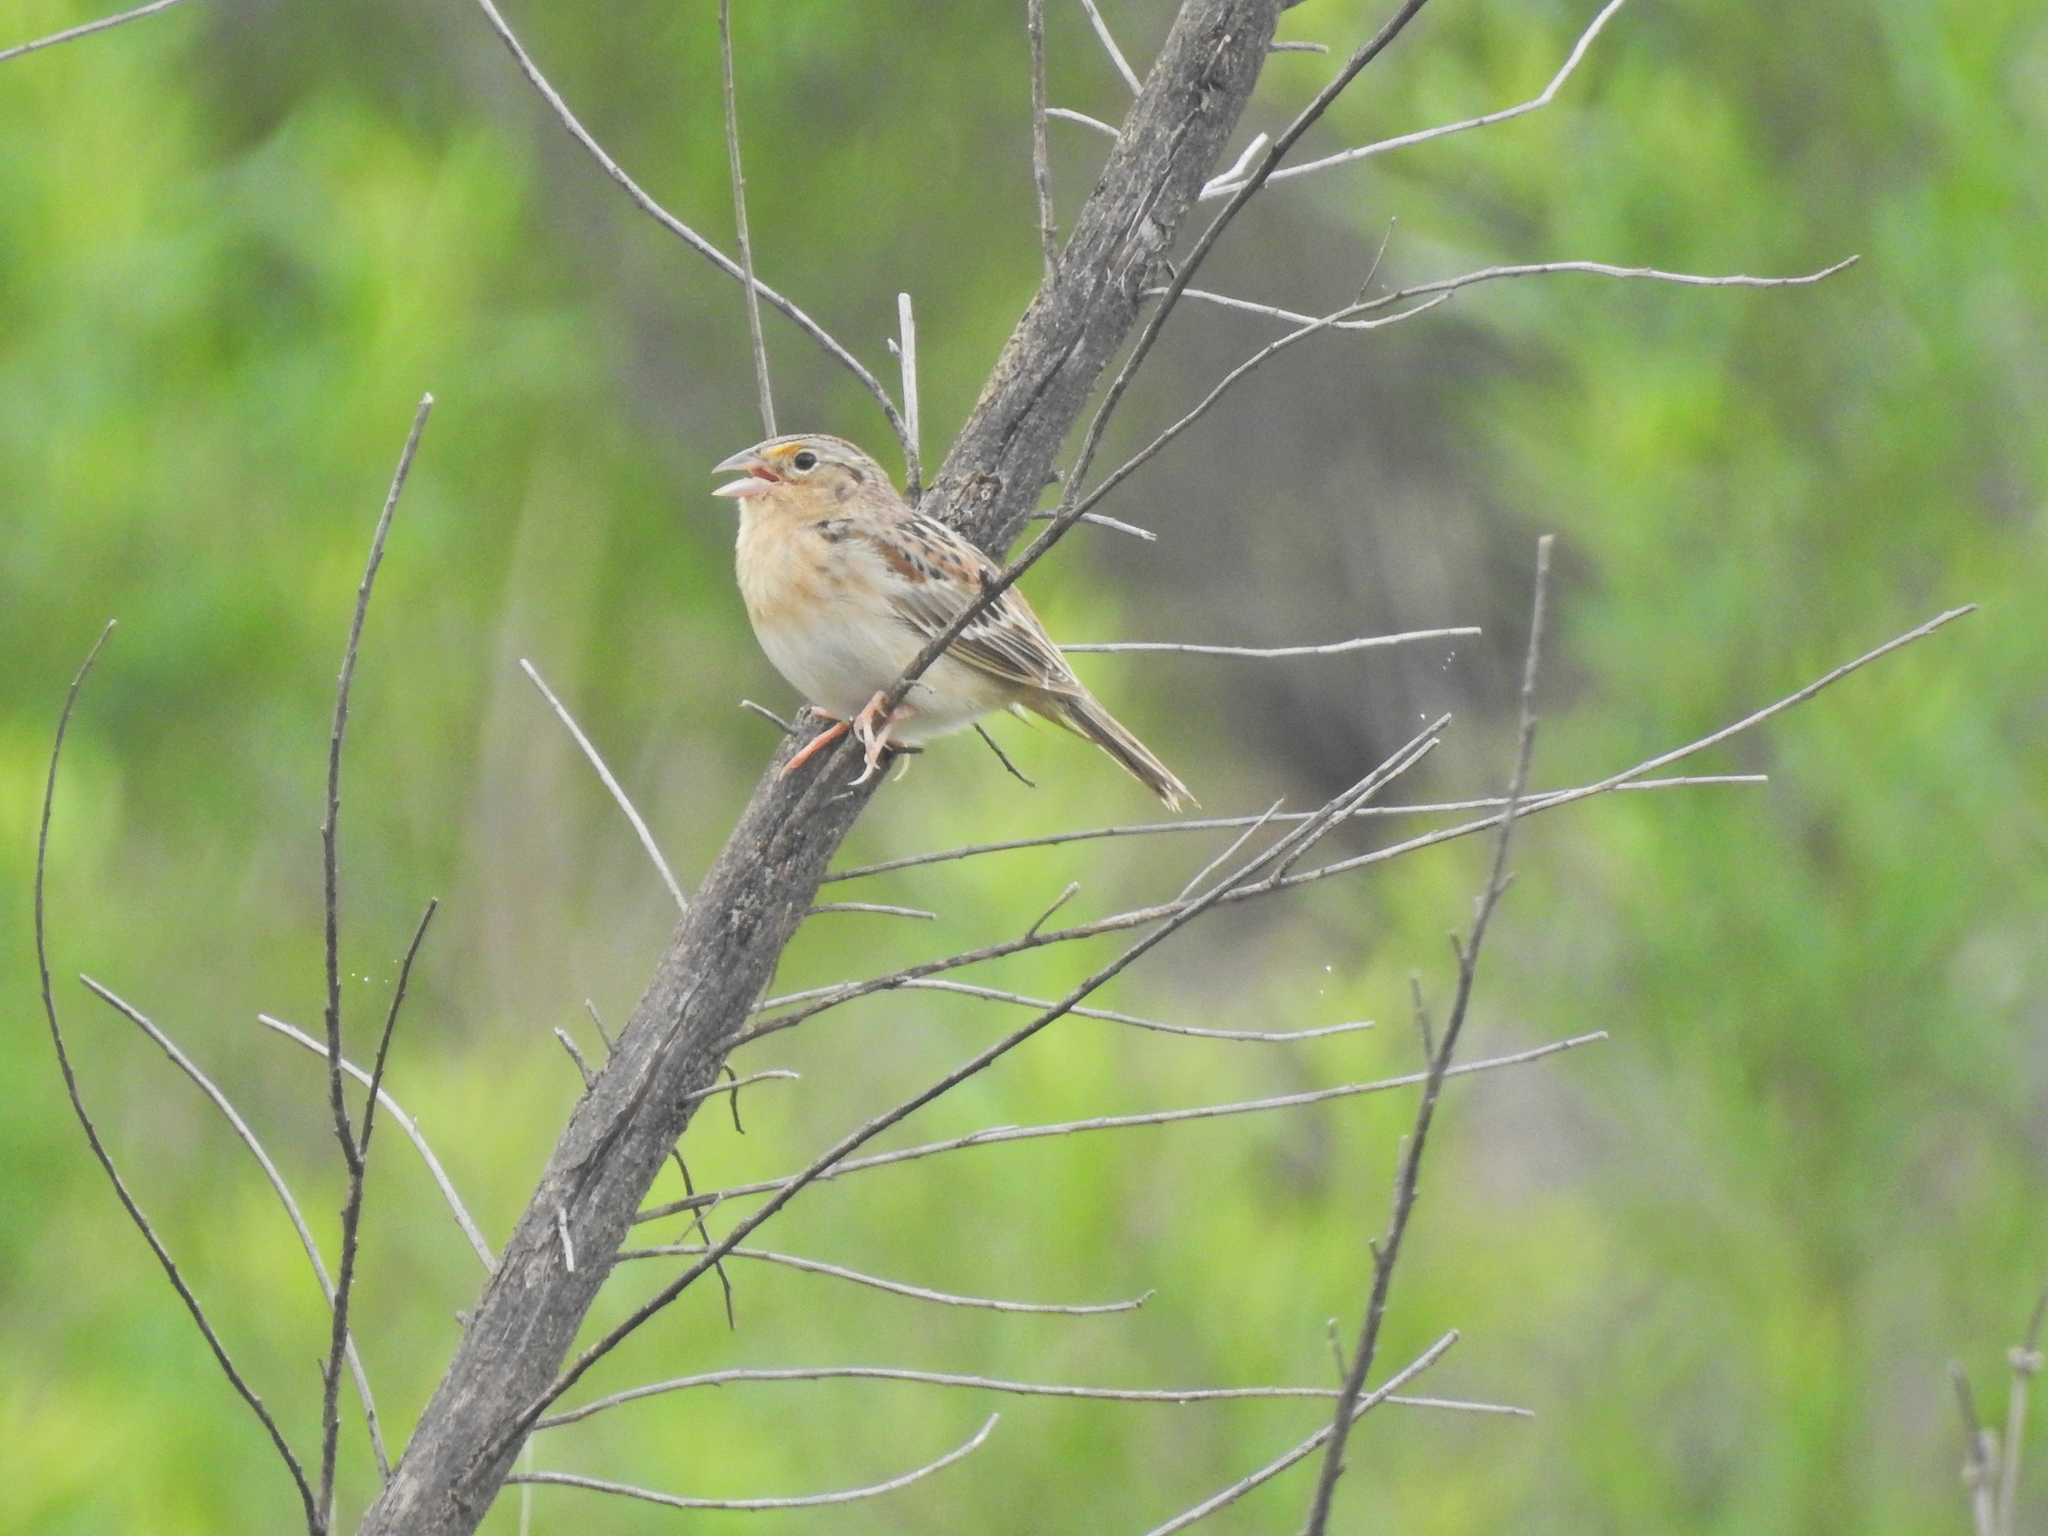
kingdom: Animalia
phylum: Chordata
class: Aves
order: Passeriformes
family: Passerellidae
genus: Ammodramus
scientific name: Ammodramus savannarum
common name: Grasshopper sparrow
